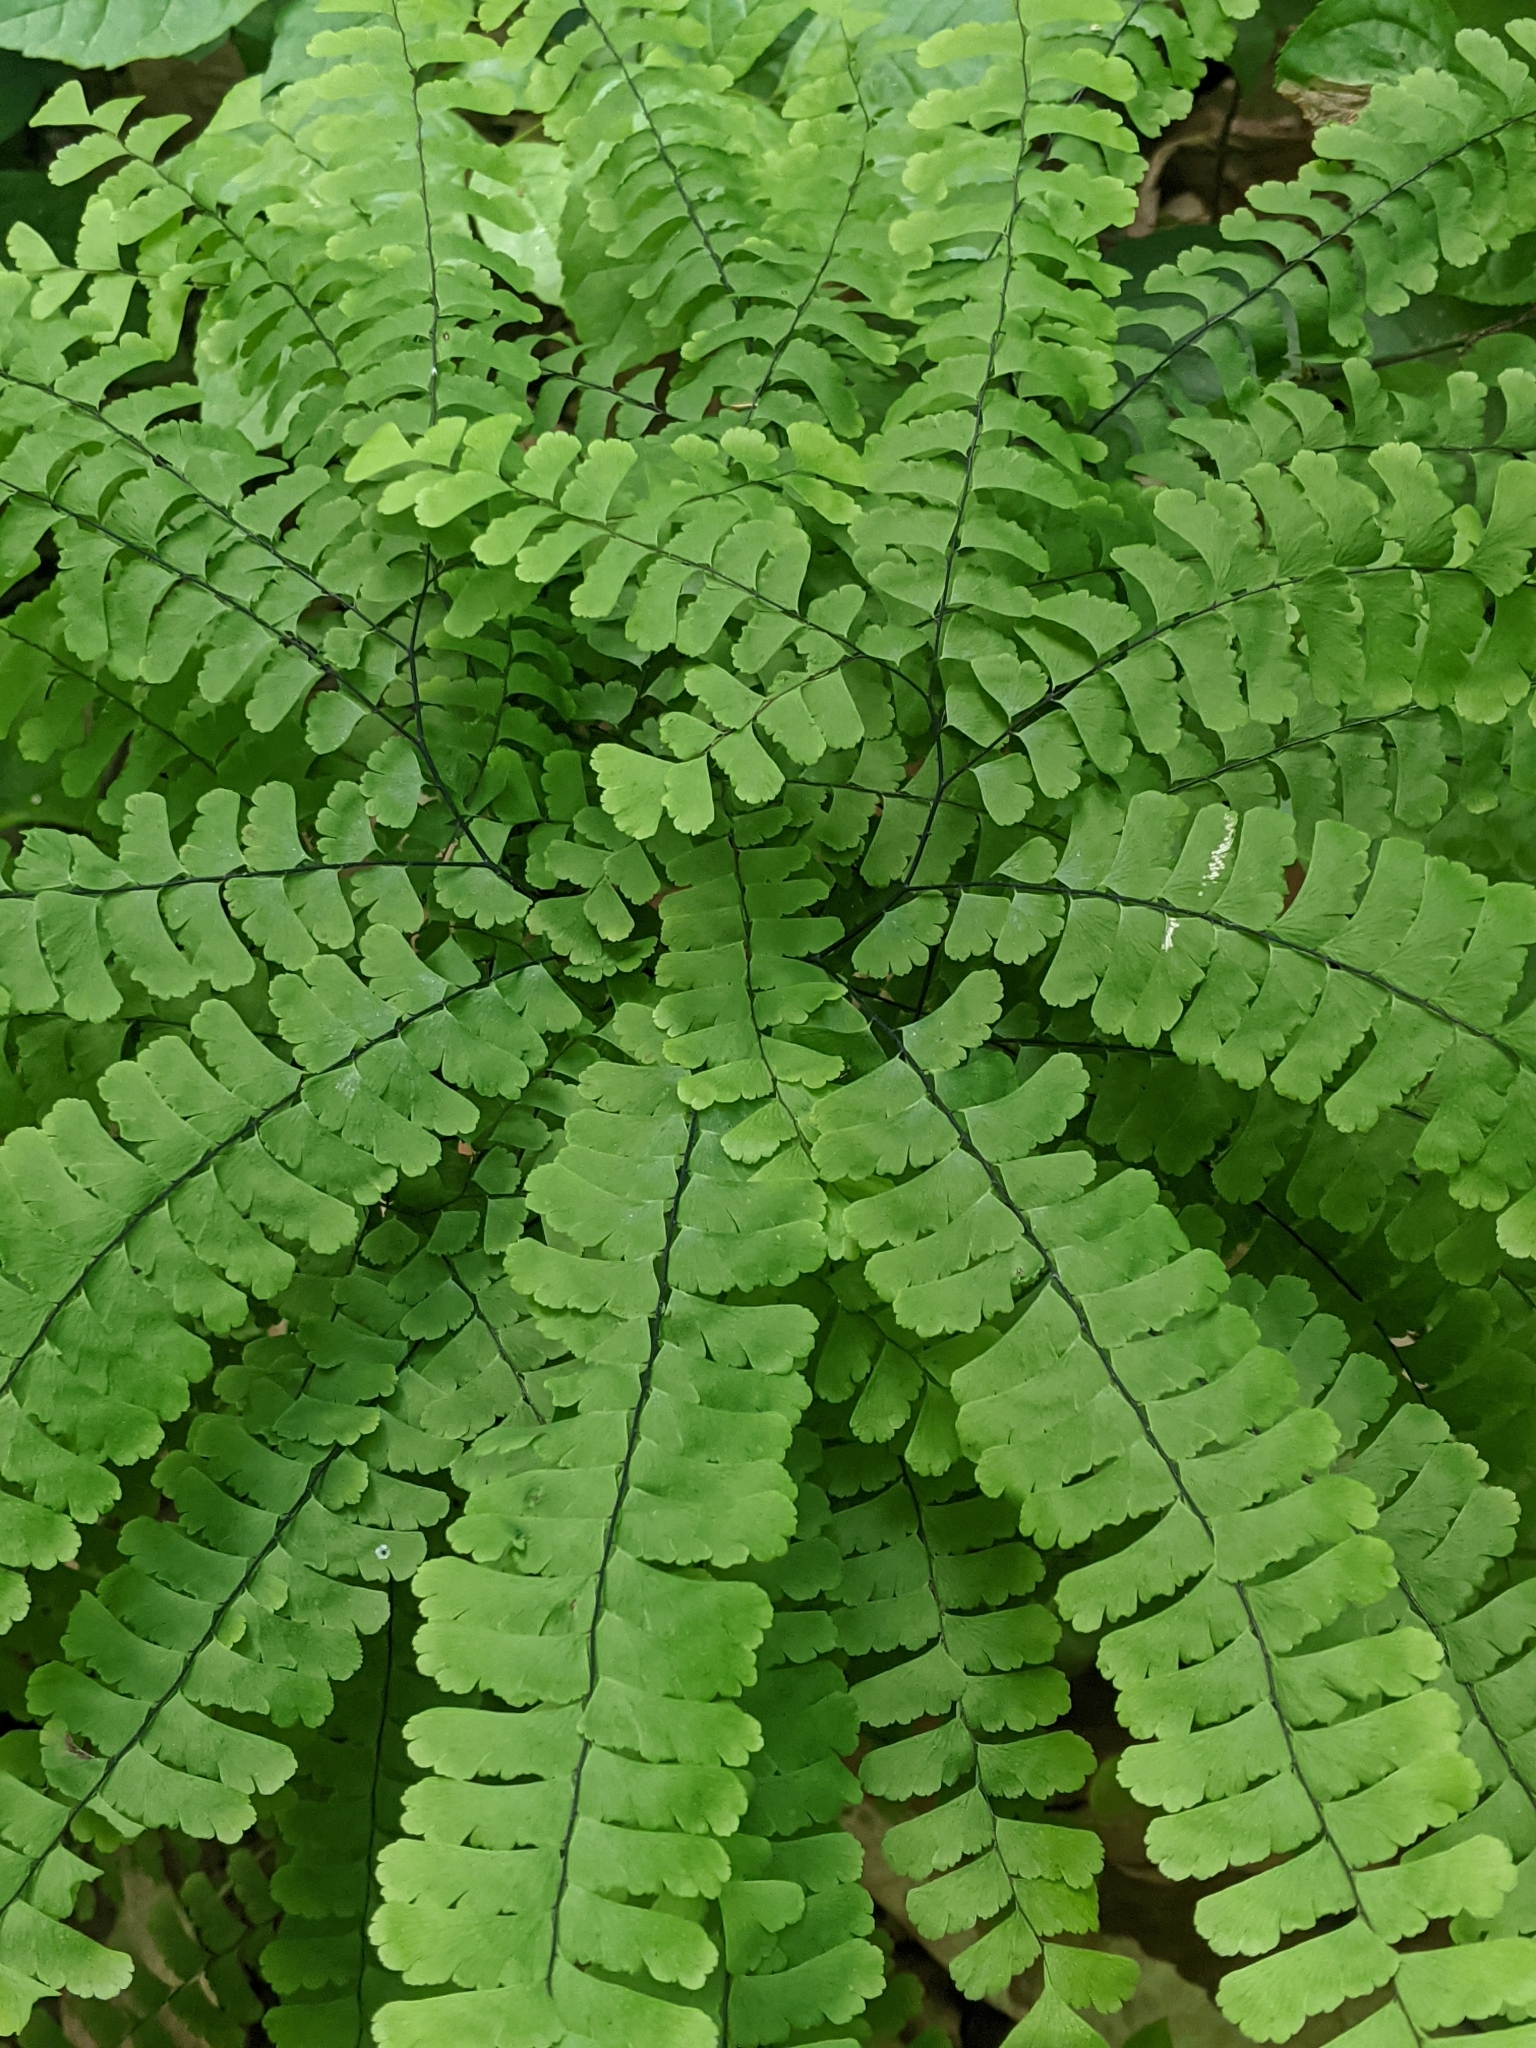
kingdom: Plantae
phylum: Tracheophyta
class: Polypodiopsida
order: Polypodiales
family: Pteridaceae
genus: Adiantum
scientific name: Adiantum pedatum
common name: Five-finger fern
